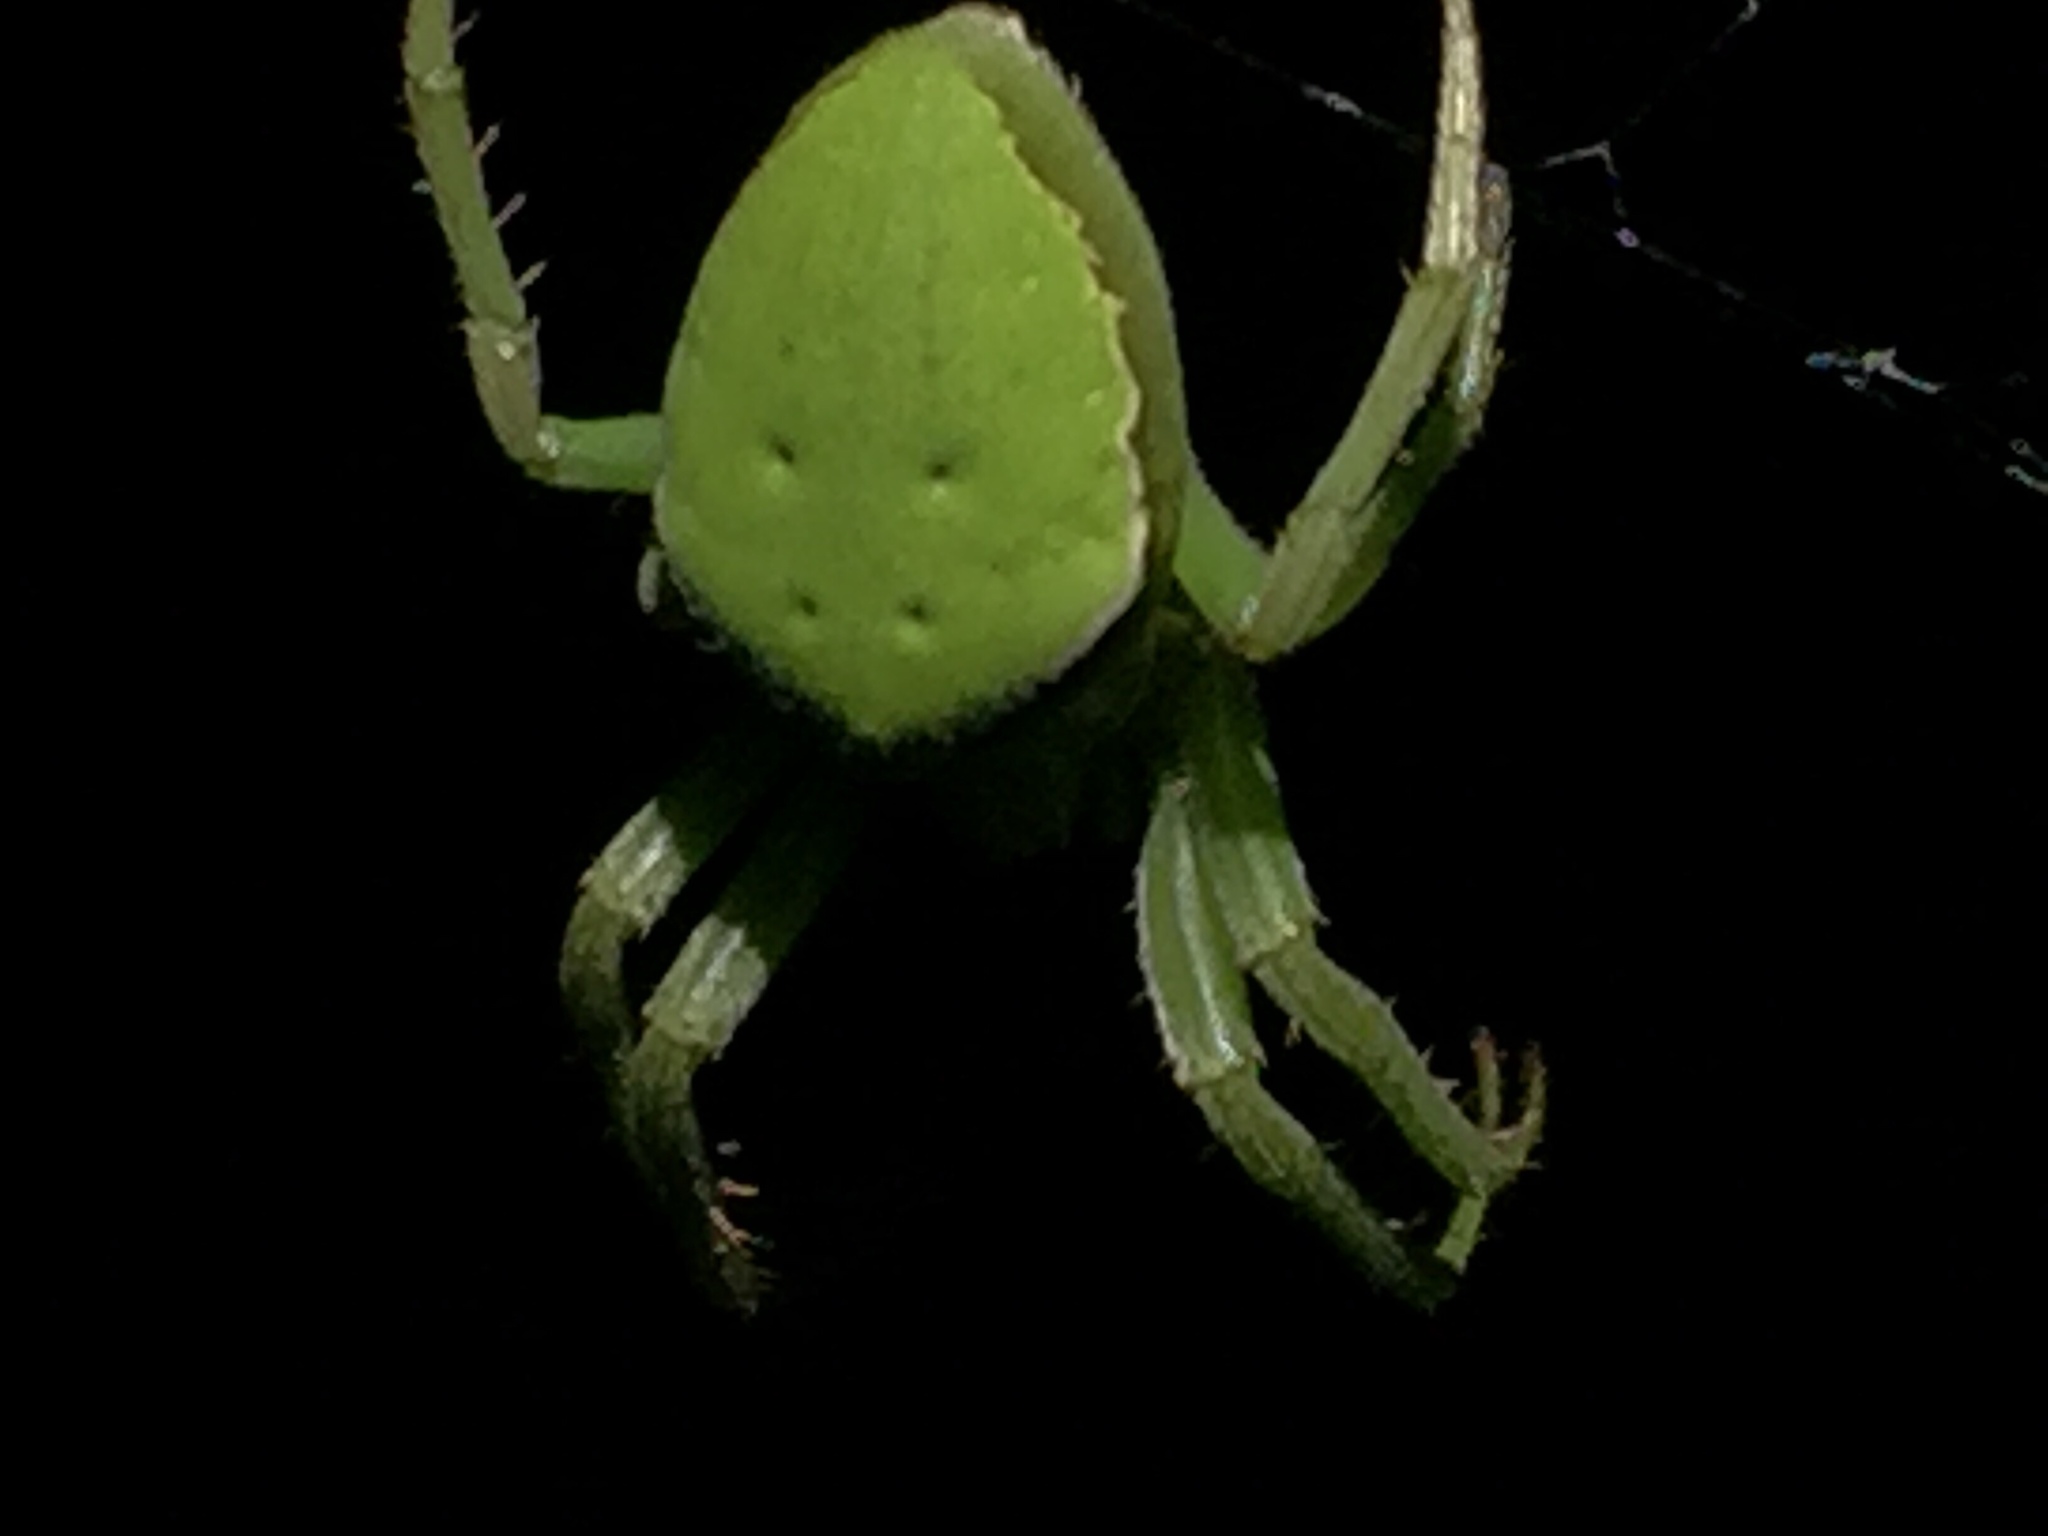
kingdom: Animalia
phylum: Arthropoda
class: Arachnida
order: Araneae
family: Araneidae
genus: Colaranea
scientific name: Colaranea viriditas
